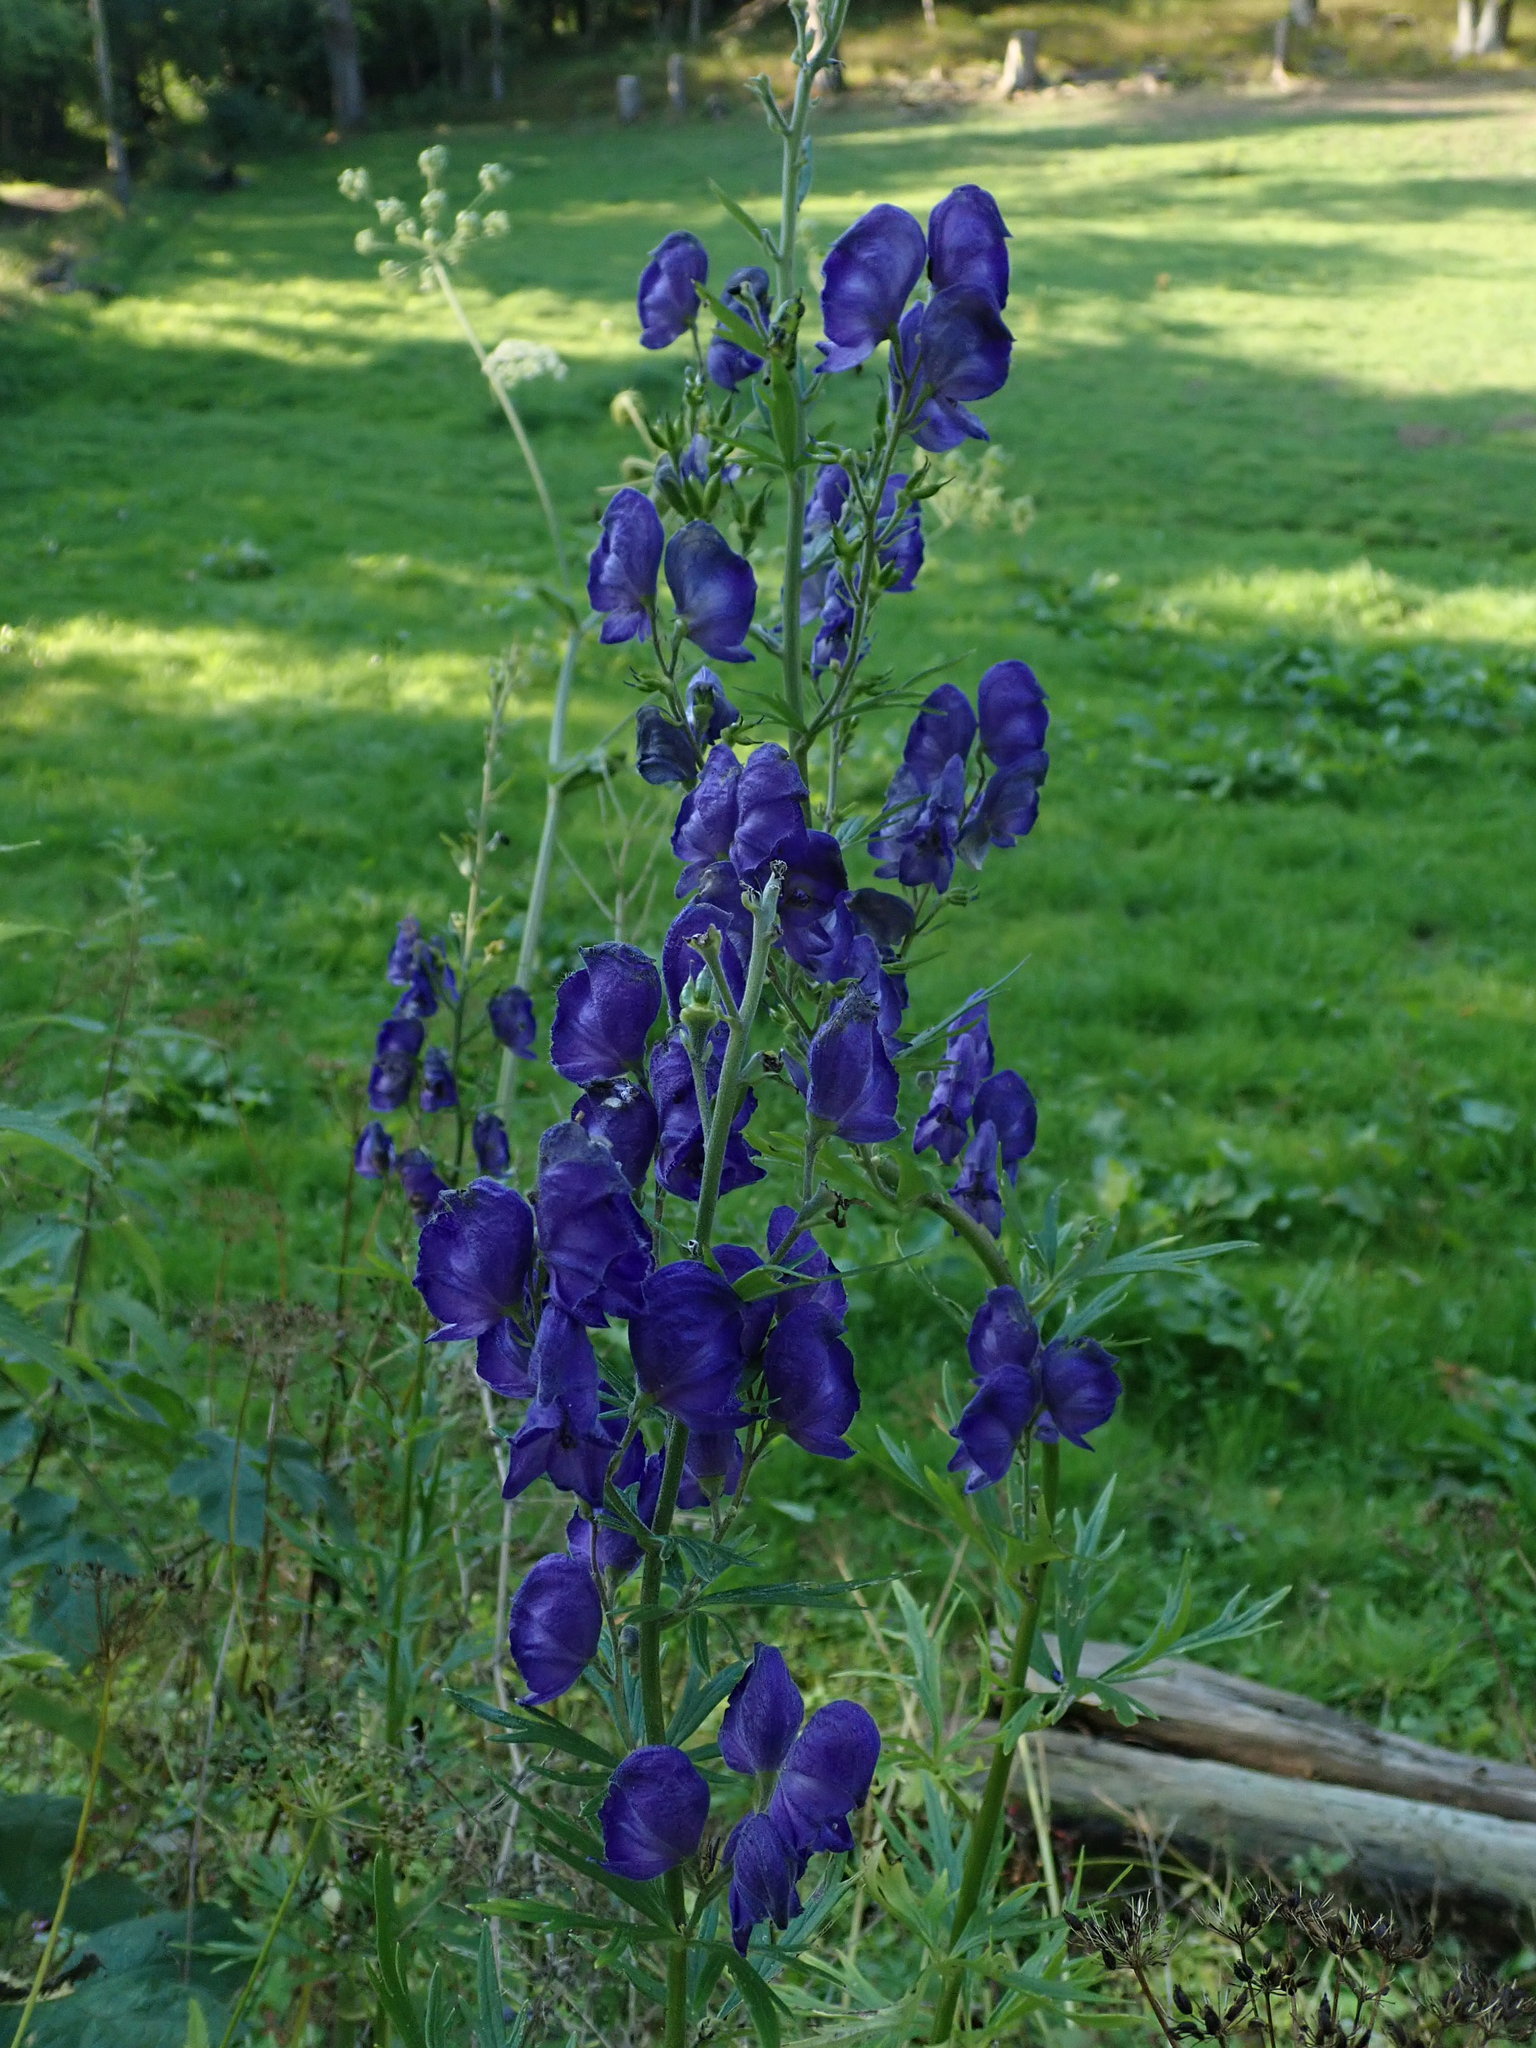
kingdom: Plantae
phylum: Tracheophyta
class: Magnoliopsida
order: Ranunculales
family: Ranunculaceae
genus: Aconitum
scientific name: Aconitum napellus
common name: Garden monkshood
